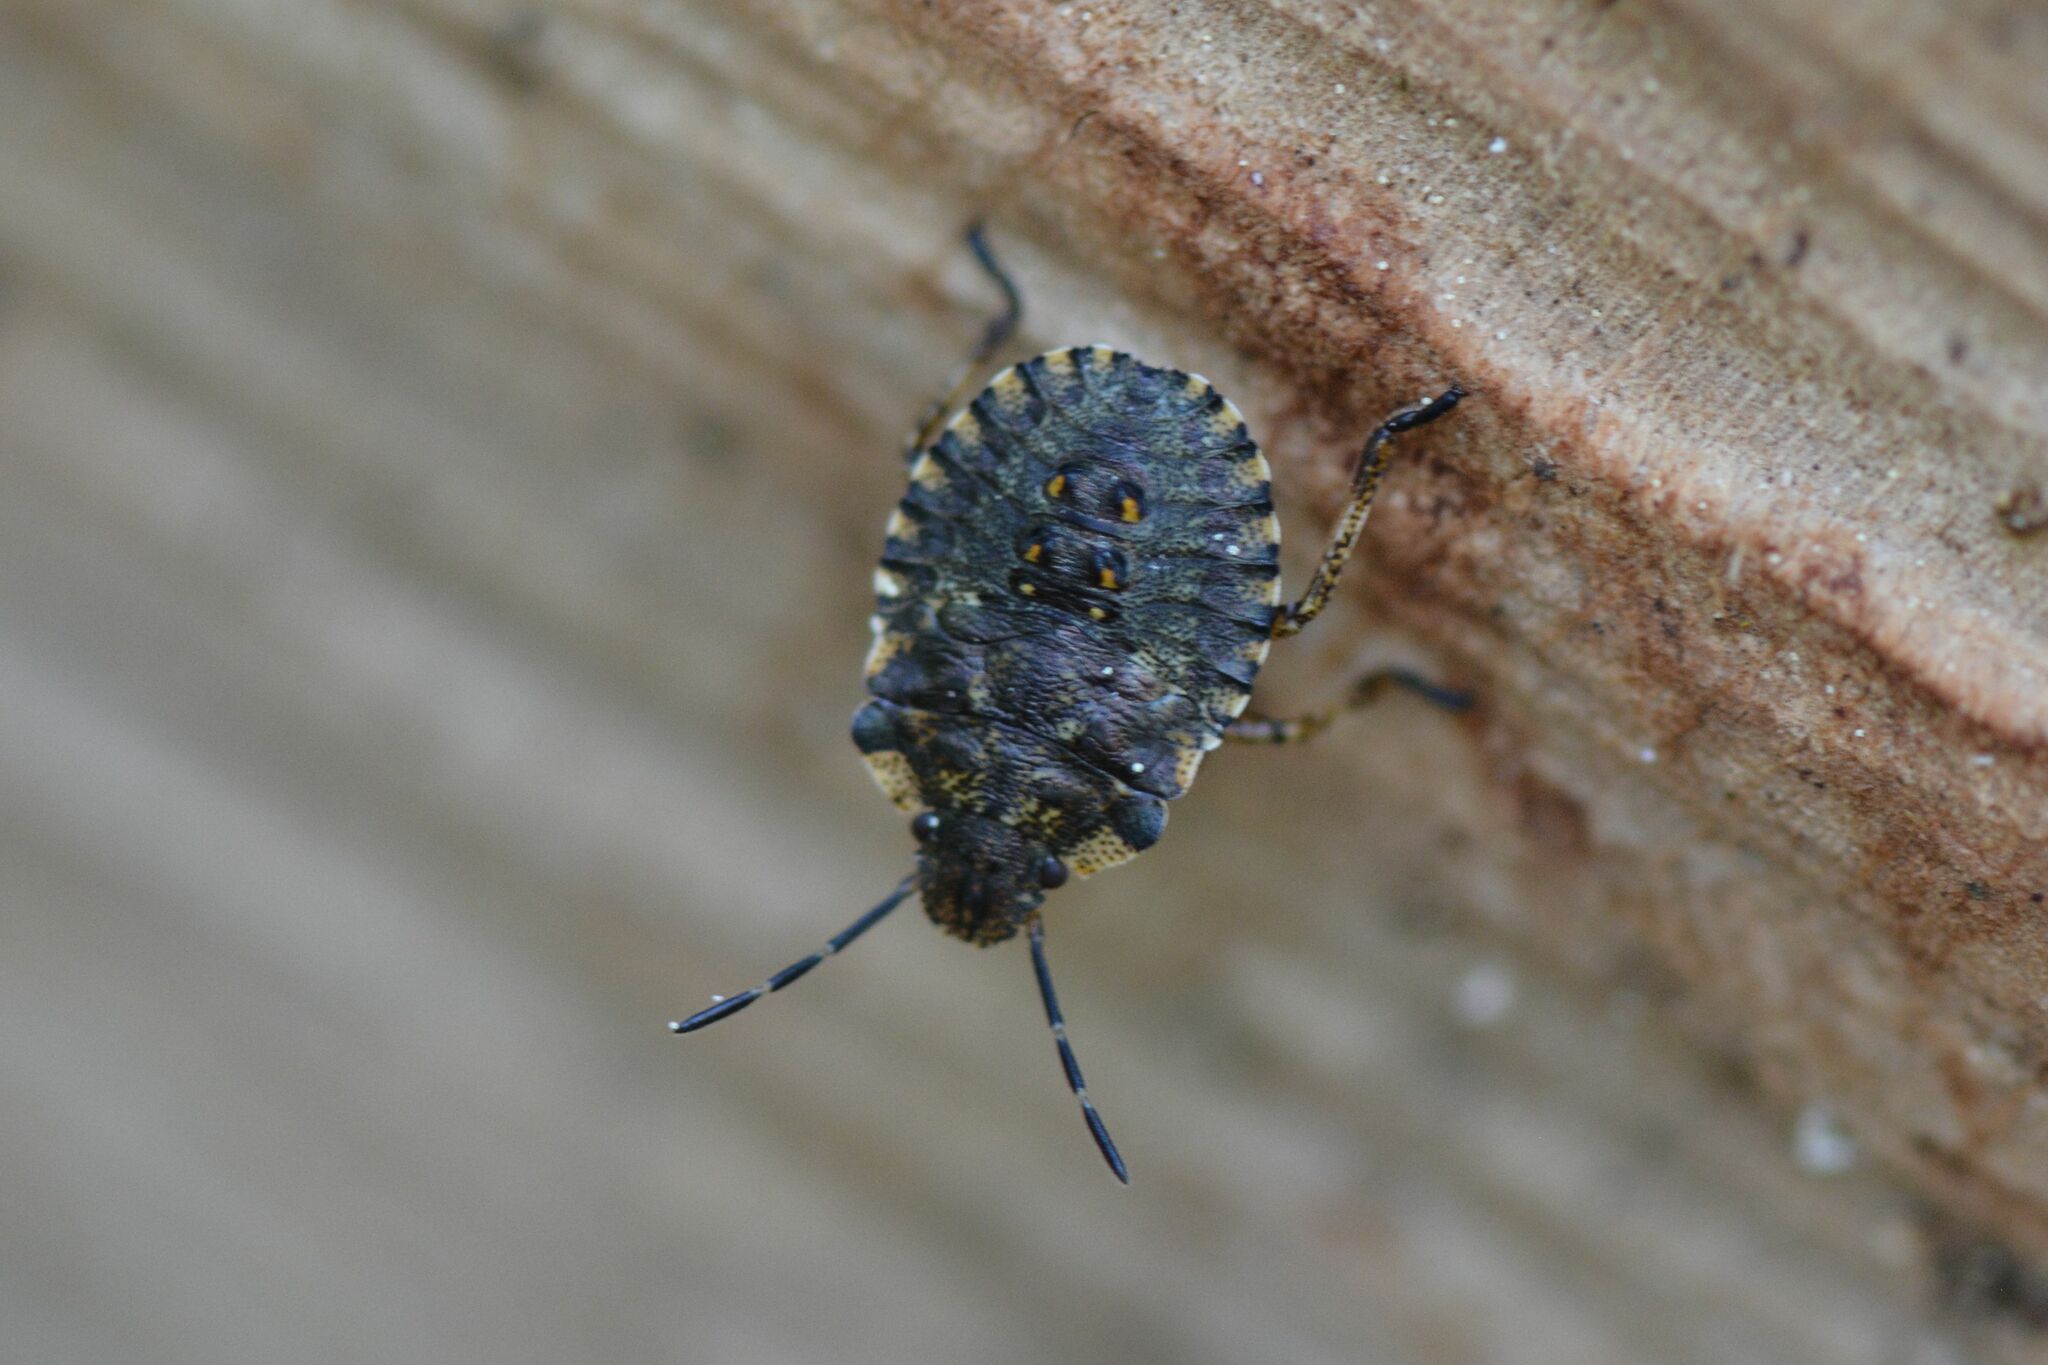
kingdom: Animalia
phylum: Arthropoda
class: Insecta
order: Hemiptera
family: Pentatomidae
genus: Pentatoma
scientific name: Pentatoma rufipes
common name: Forest bug
